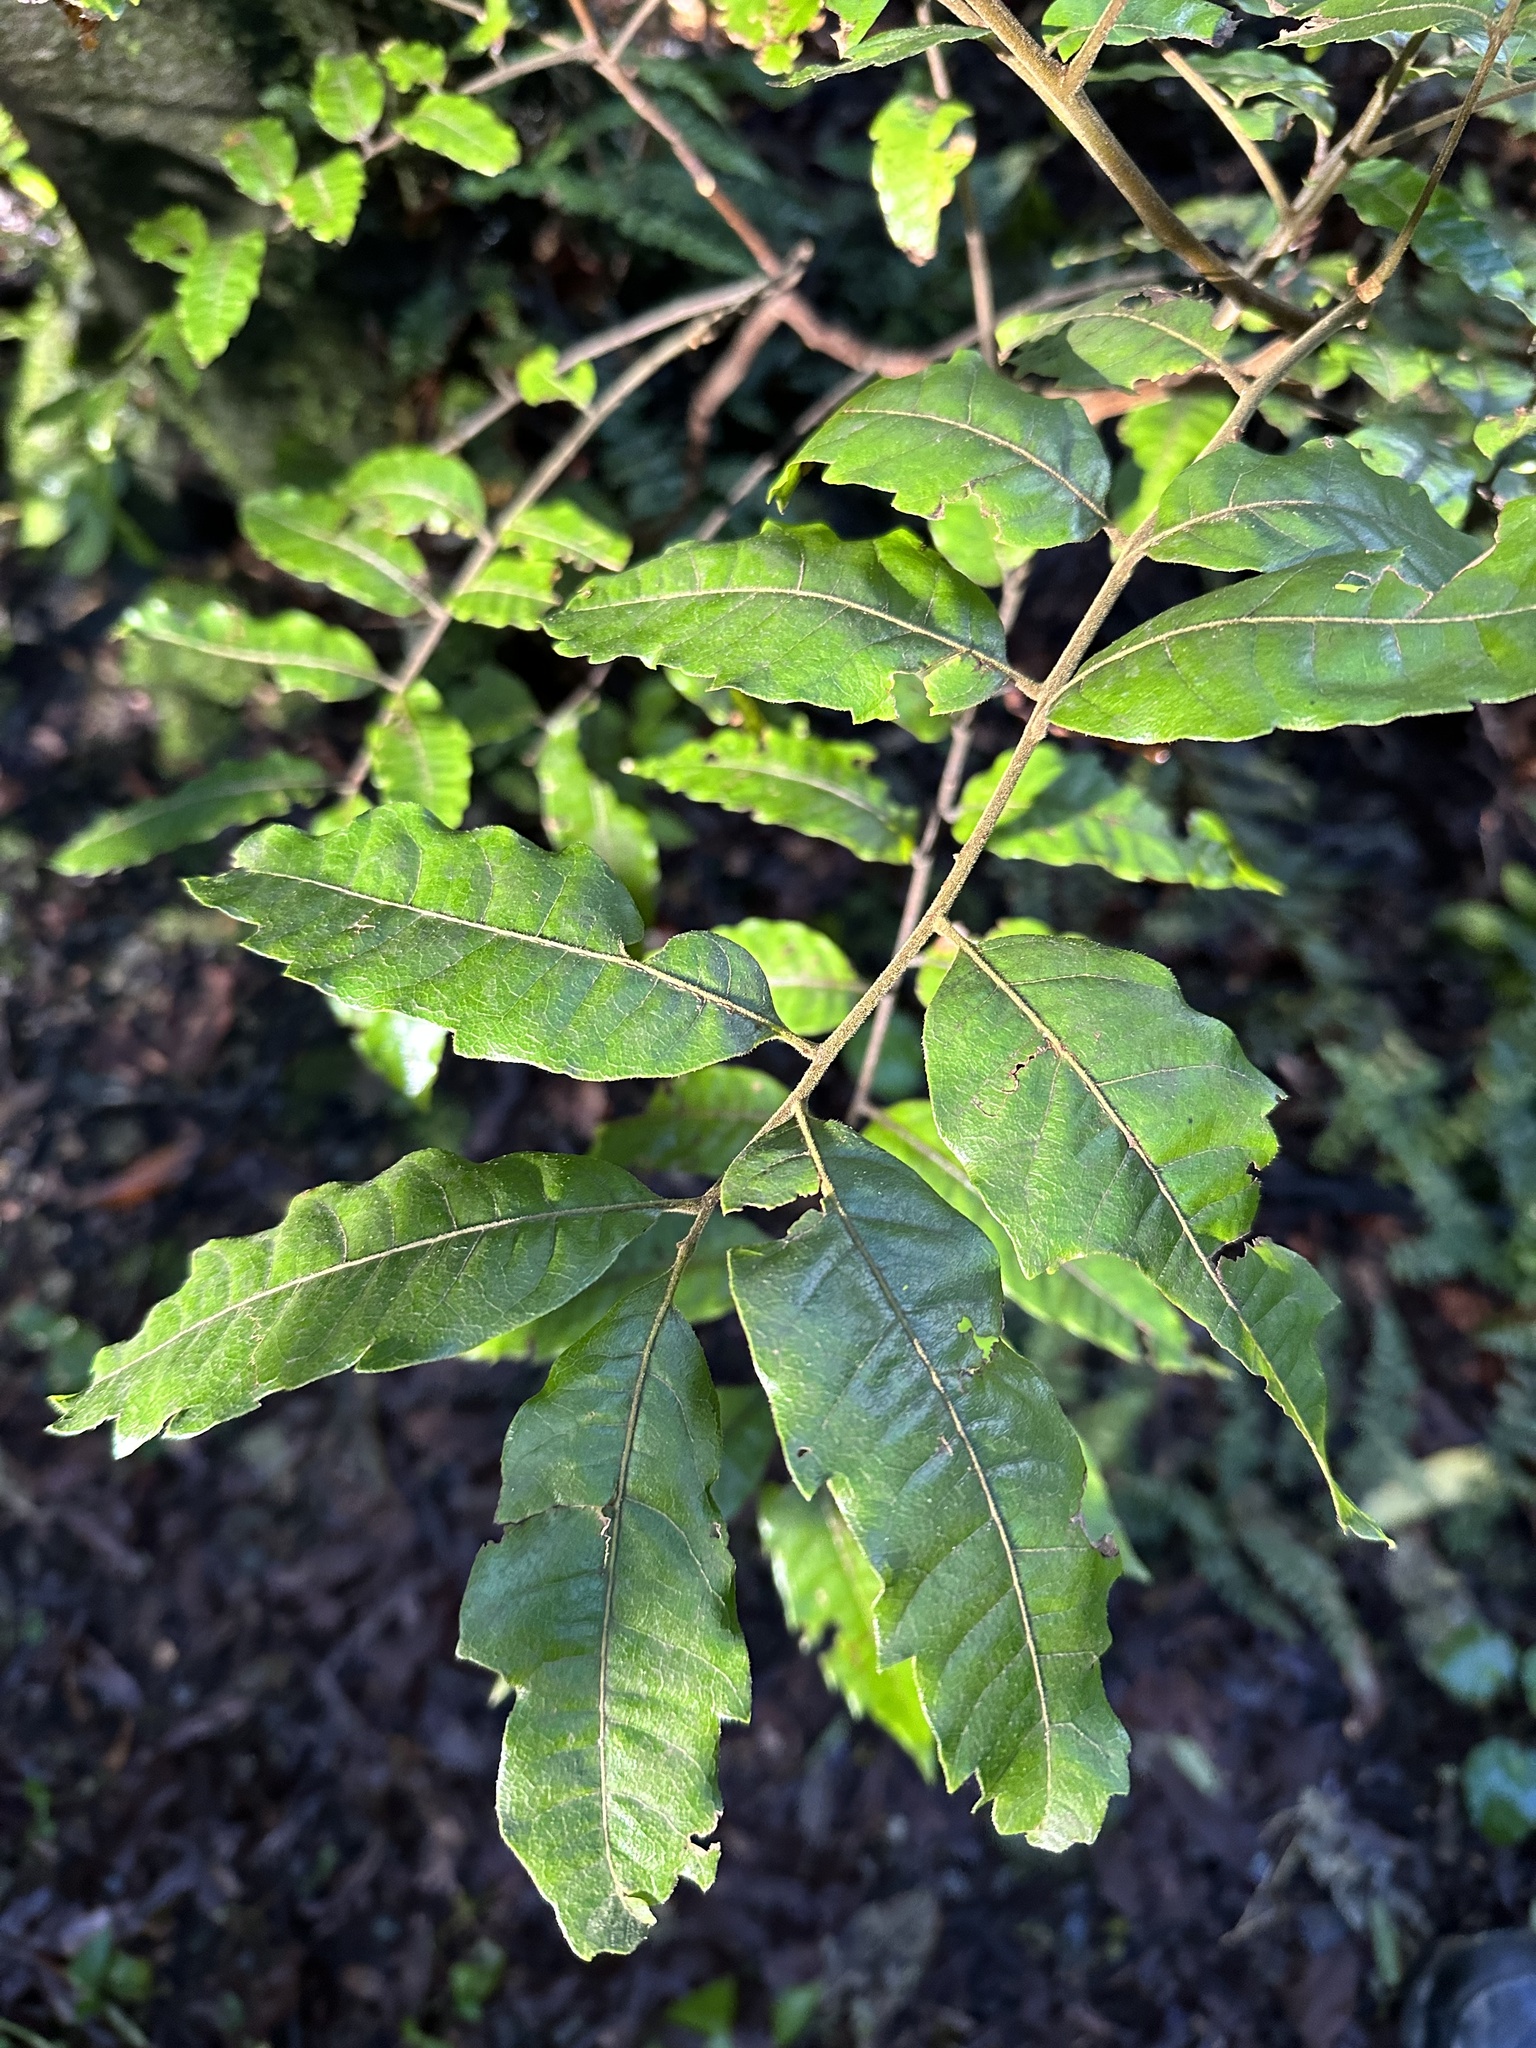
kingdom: Plantae
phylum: Tracheophyta
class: Magnoliopsida
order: Sapindales
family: Sapindaceae
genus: Alectryon
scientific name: Alectryon excelsus
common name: Three kings titoki
